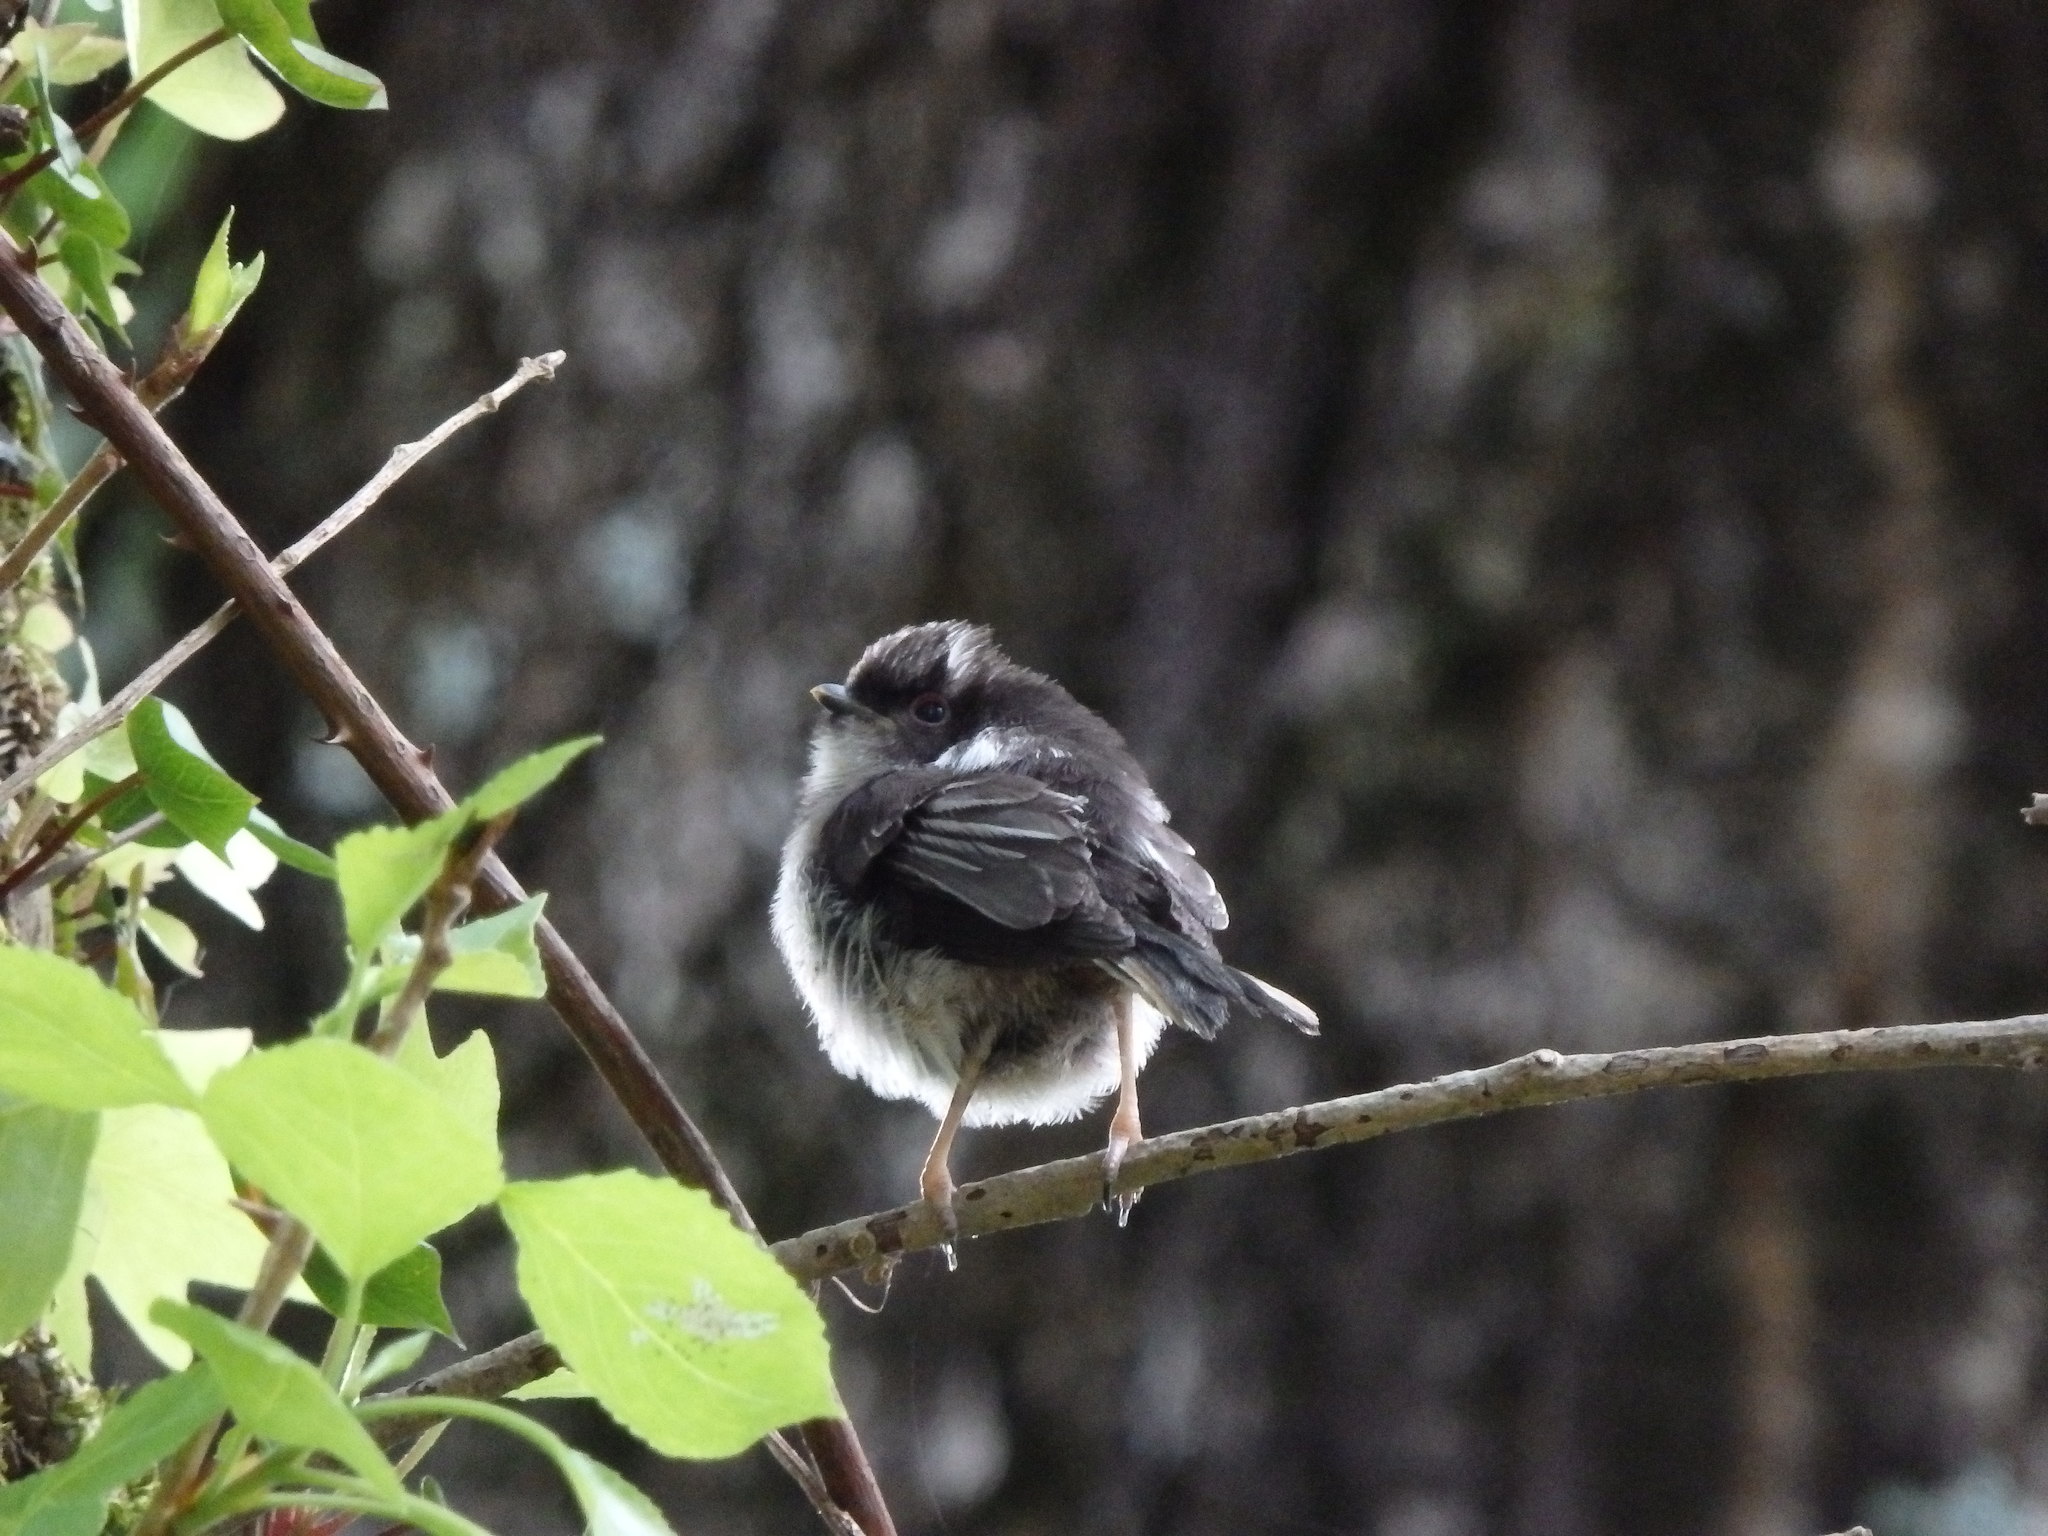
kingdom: Animalia
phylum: Chordata
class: Aves
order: Passeriformes
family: Aegithalidae
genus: Aegithalos
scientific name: Aegithalos caudatus
